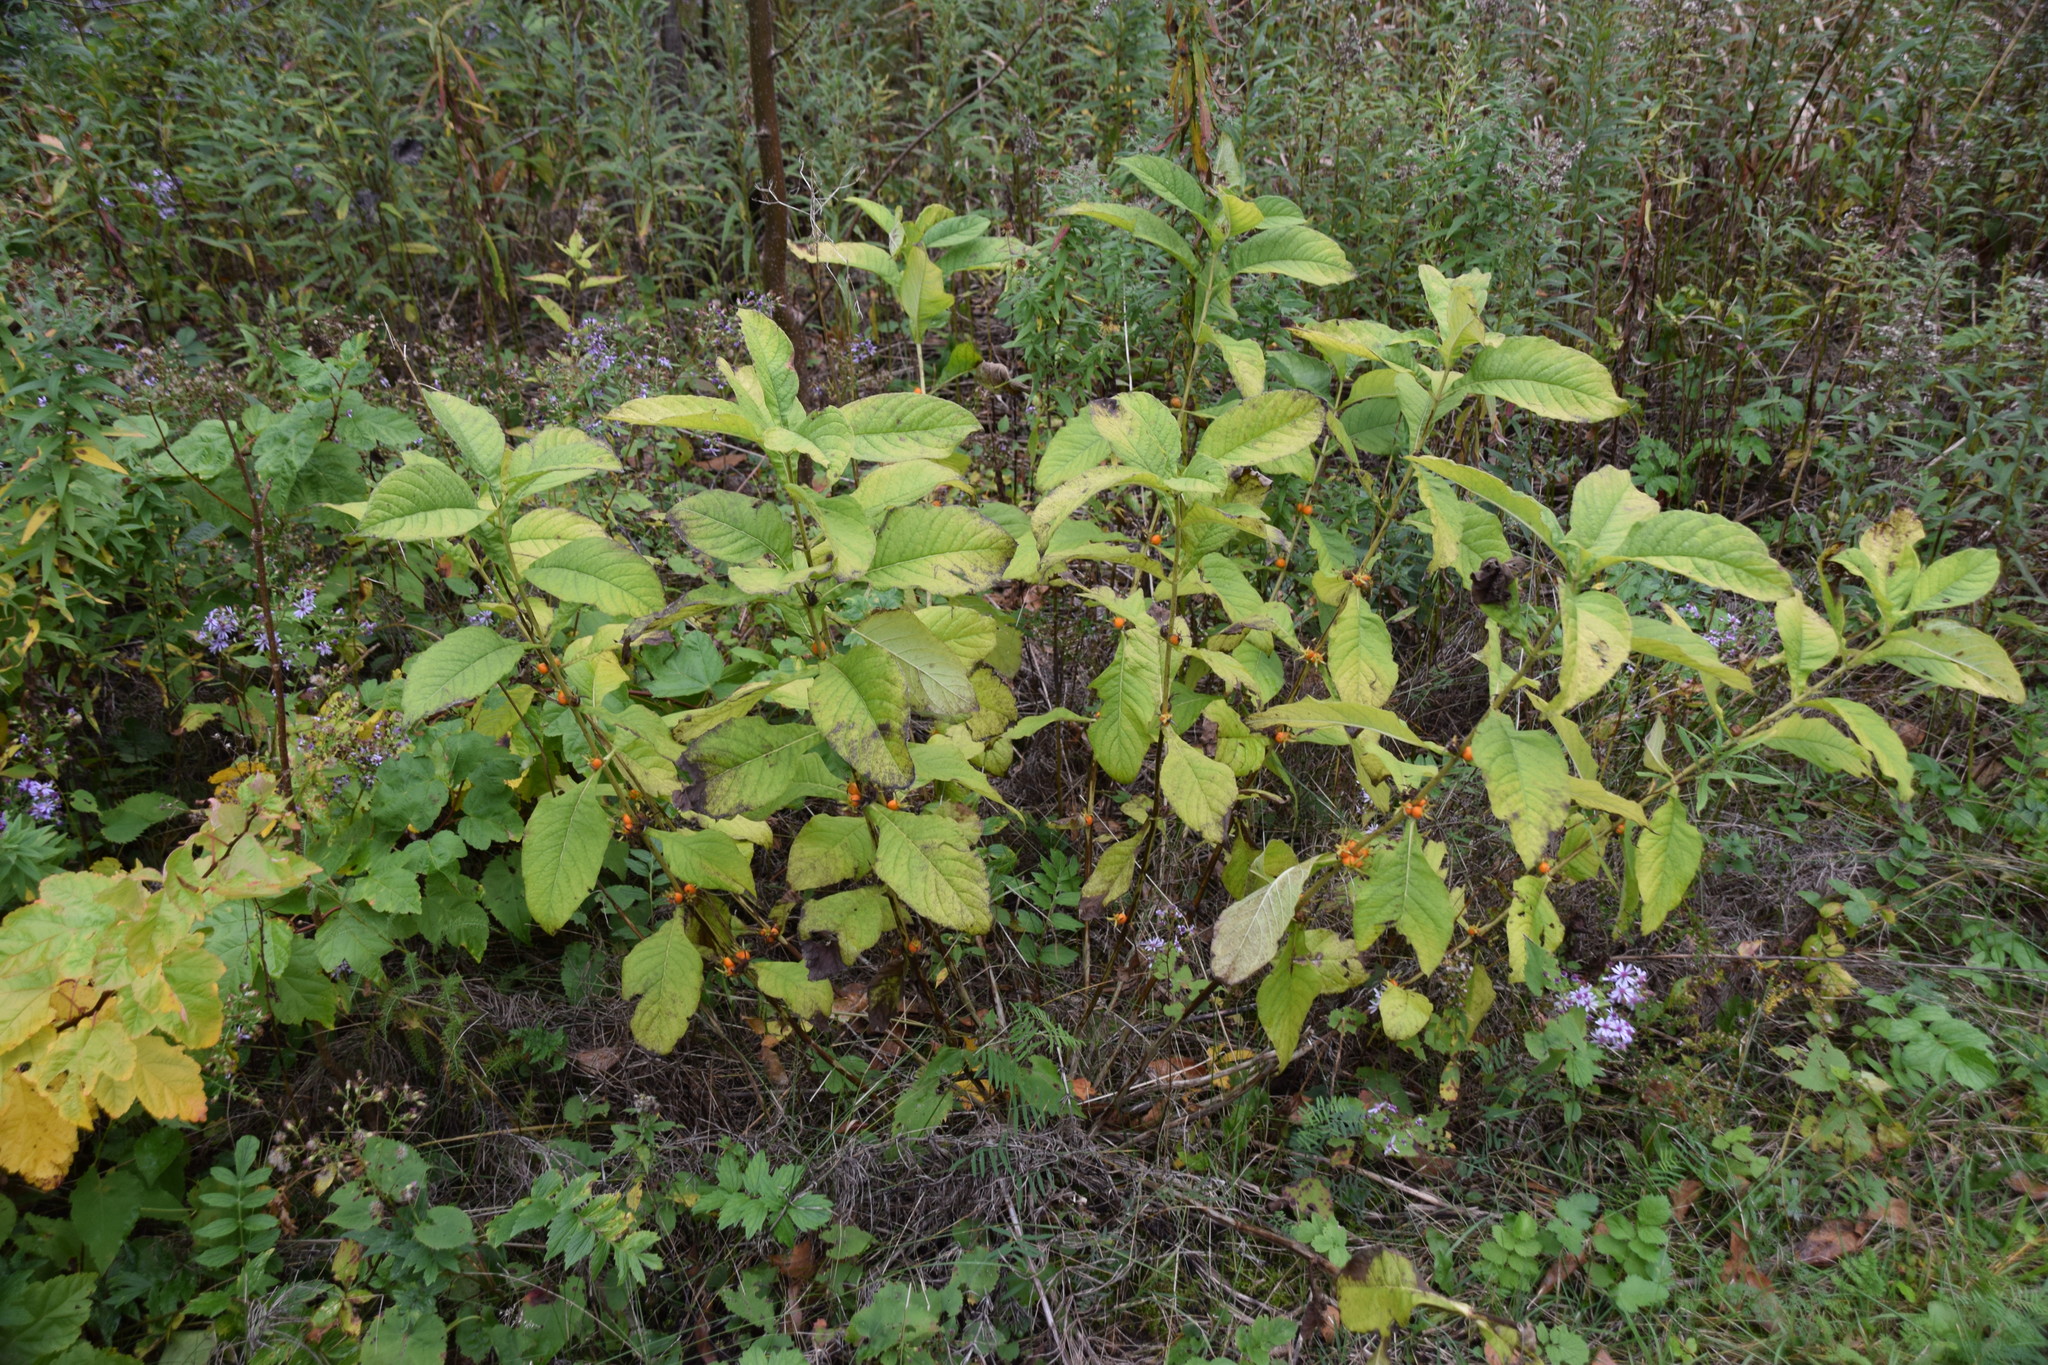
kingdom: Plantae
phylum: Tracheophyta
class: Magnoliopsida
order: Dipsacales
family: Caprifoliaceae
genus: Triosteum
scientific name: Triosteum aurantiacum
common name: Coffee tinker's-weed
